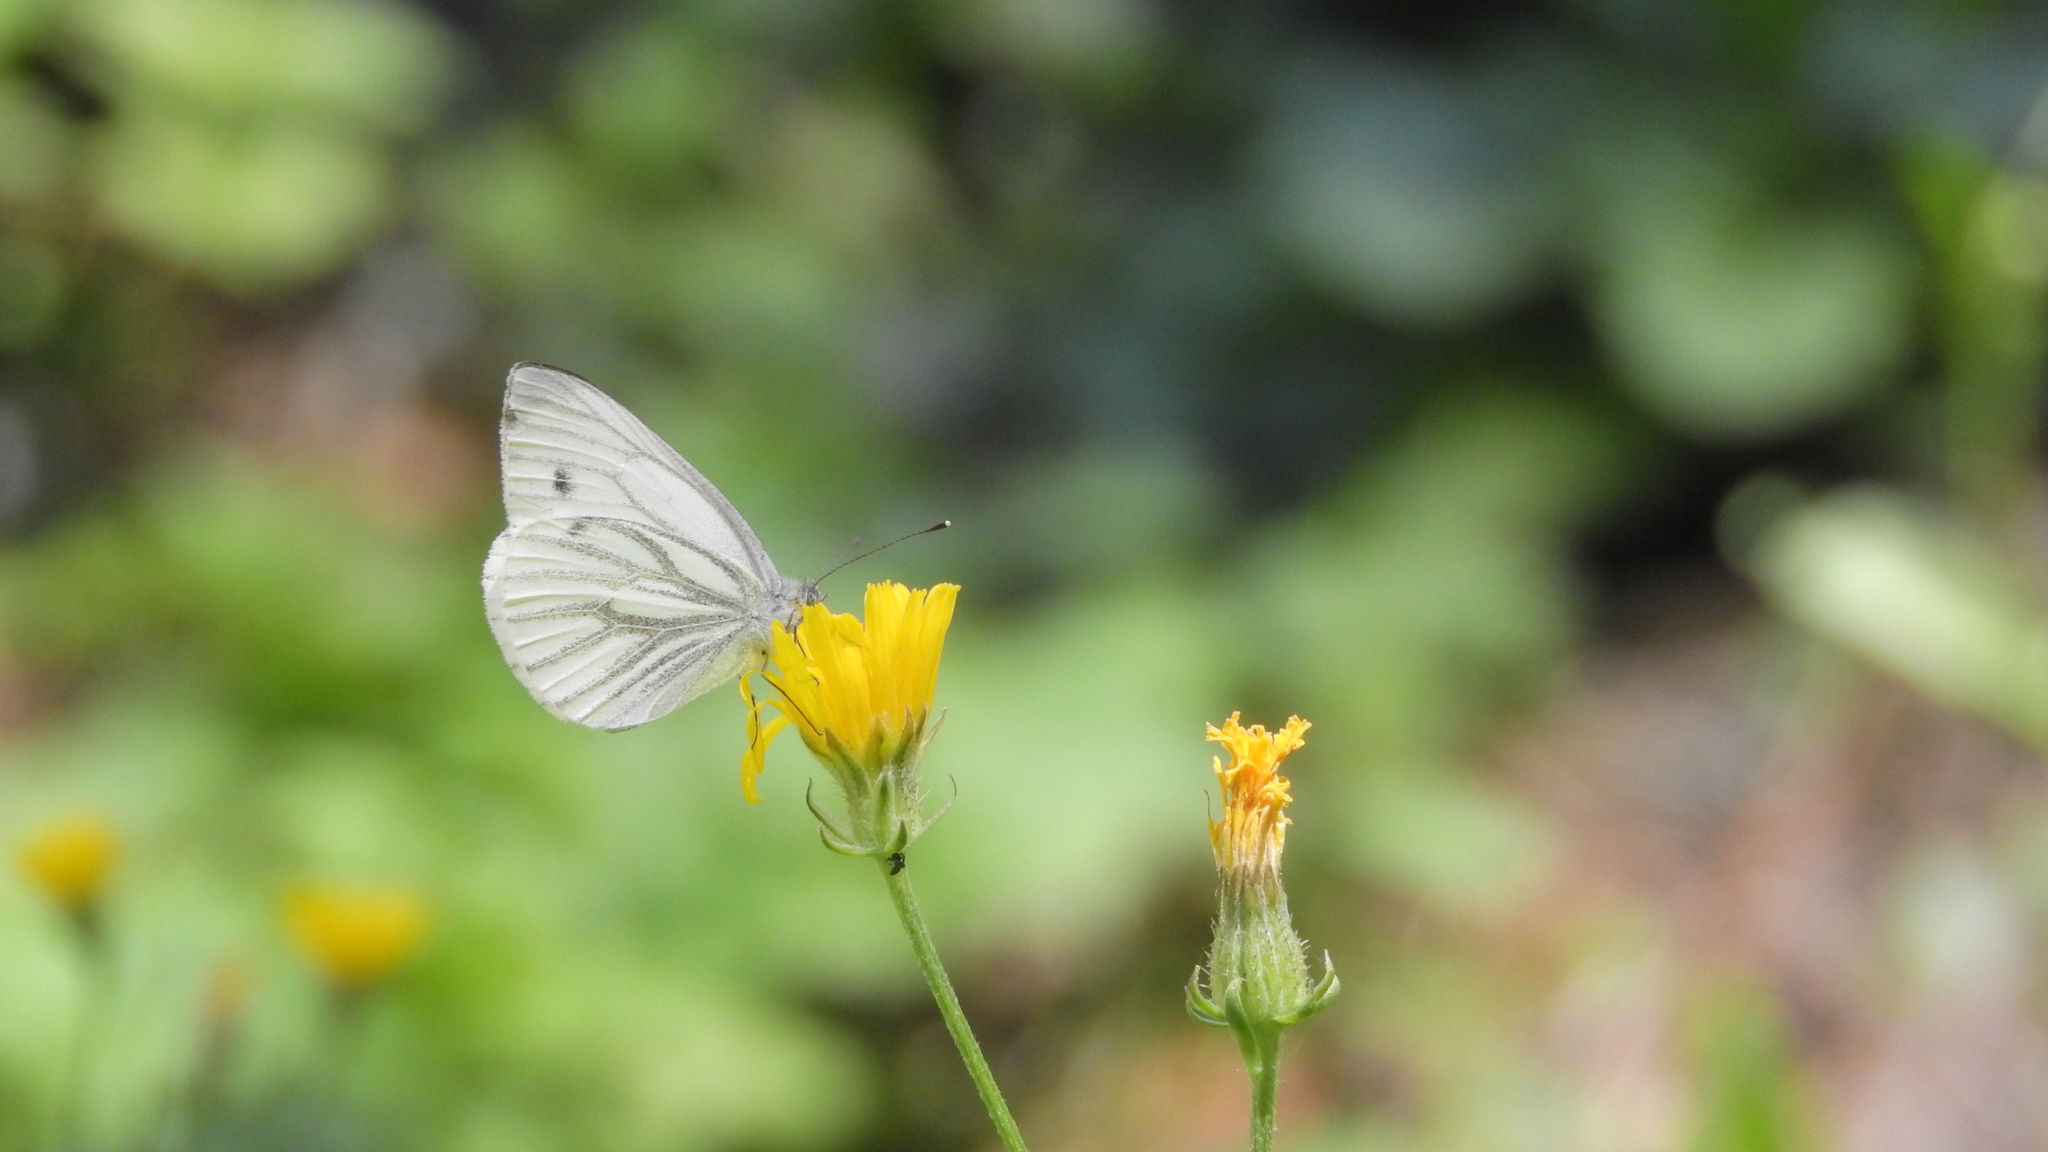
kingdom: Animalia
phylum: Arthropoda
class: Insecta
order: Lepidoptera
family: Pieridae
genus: Pieris
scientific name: Pieris napi
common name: Green-veined white
